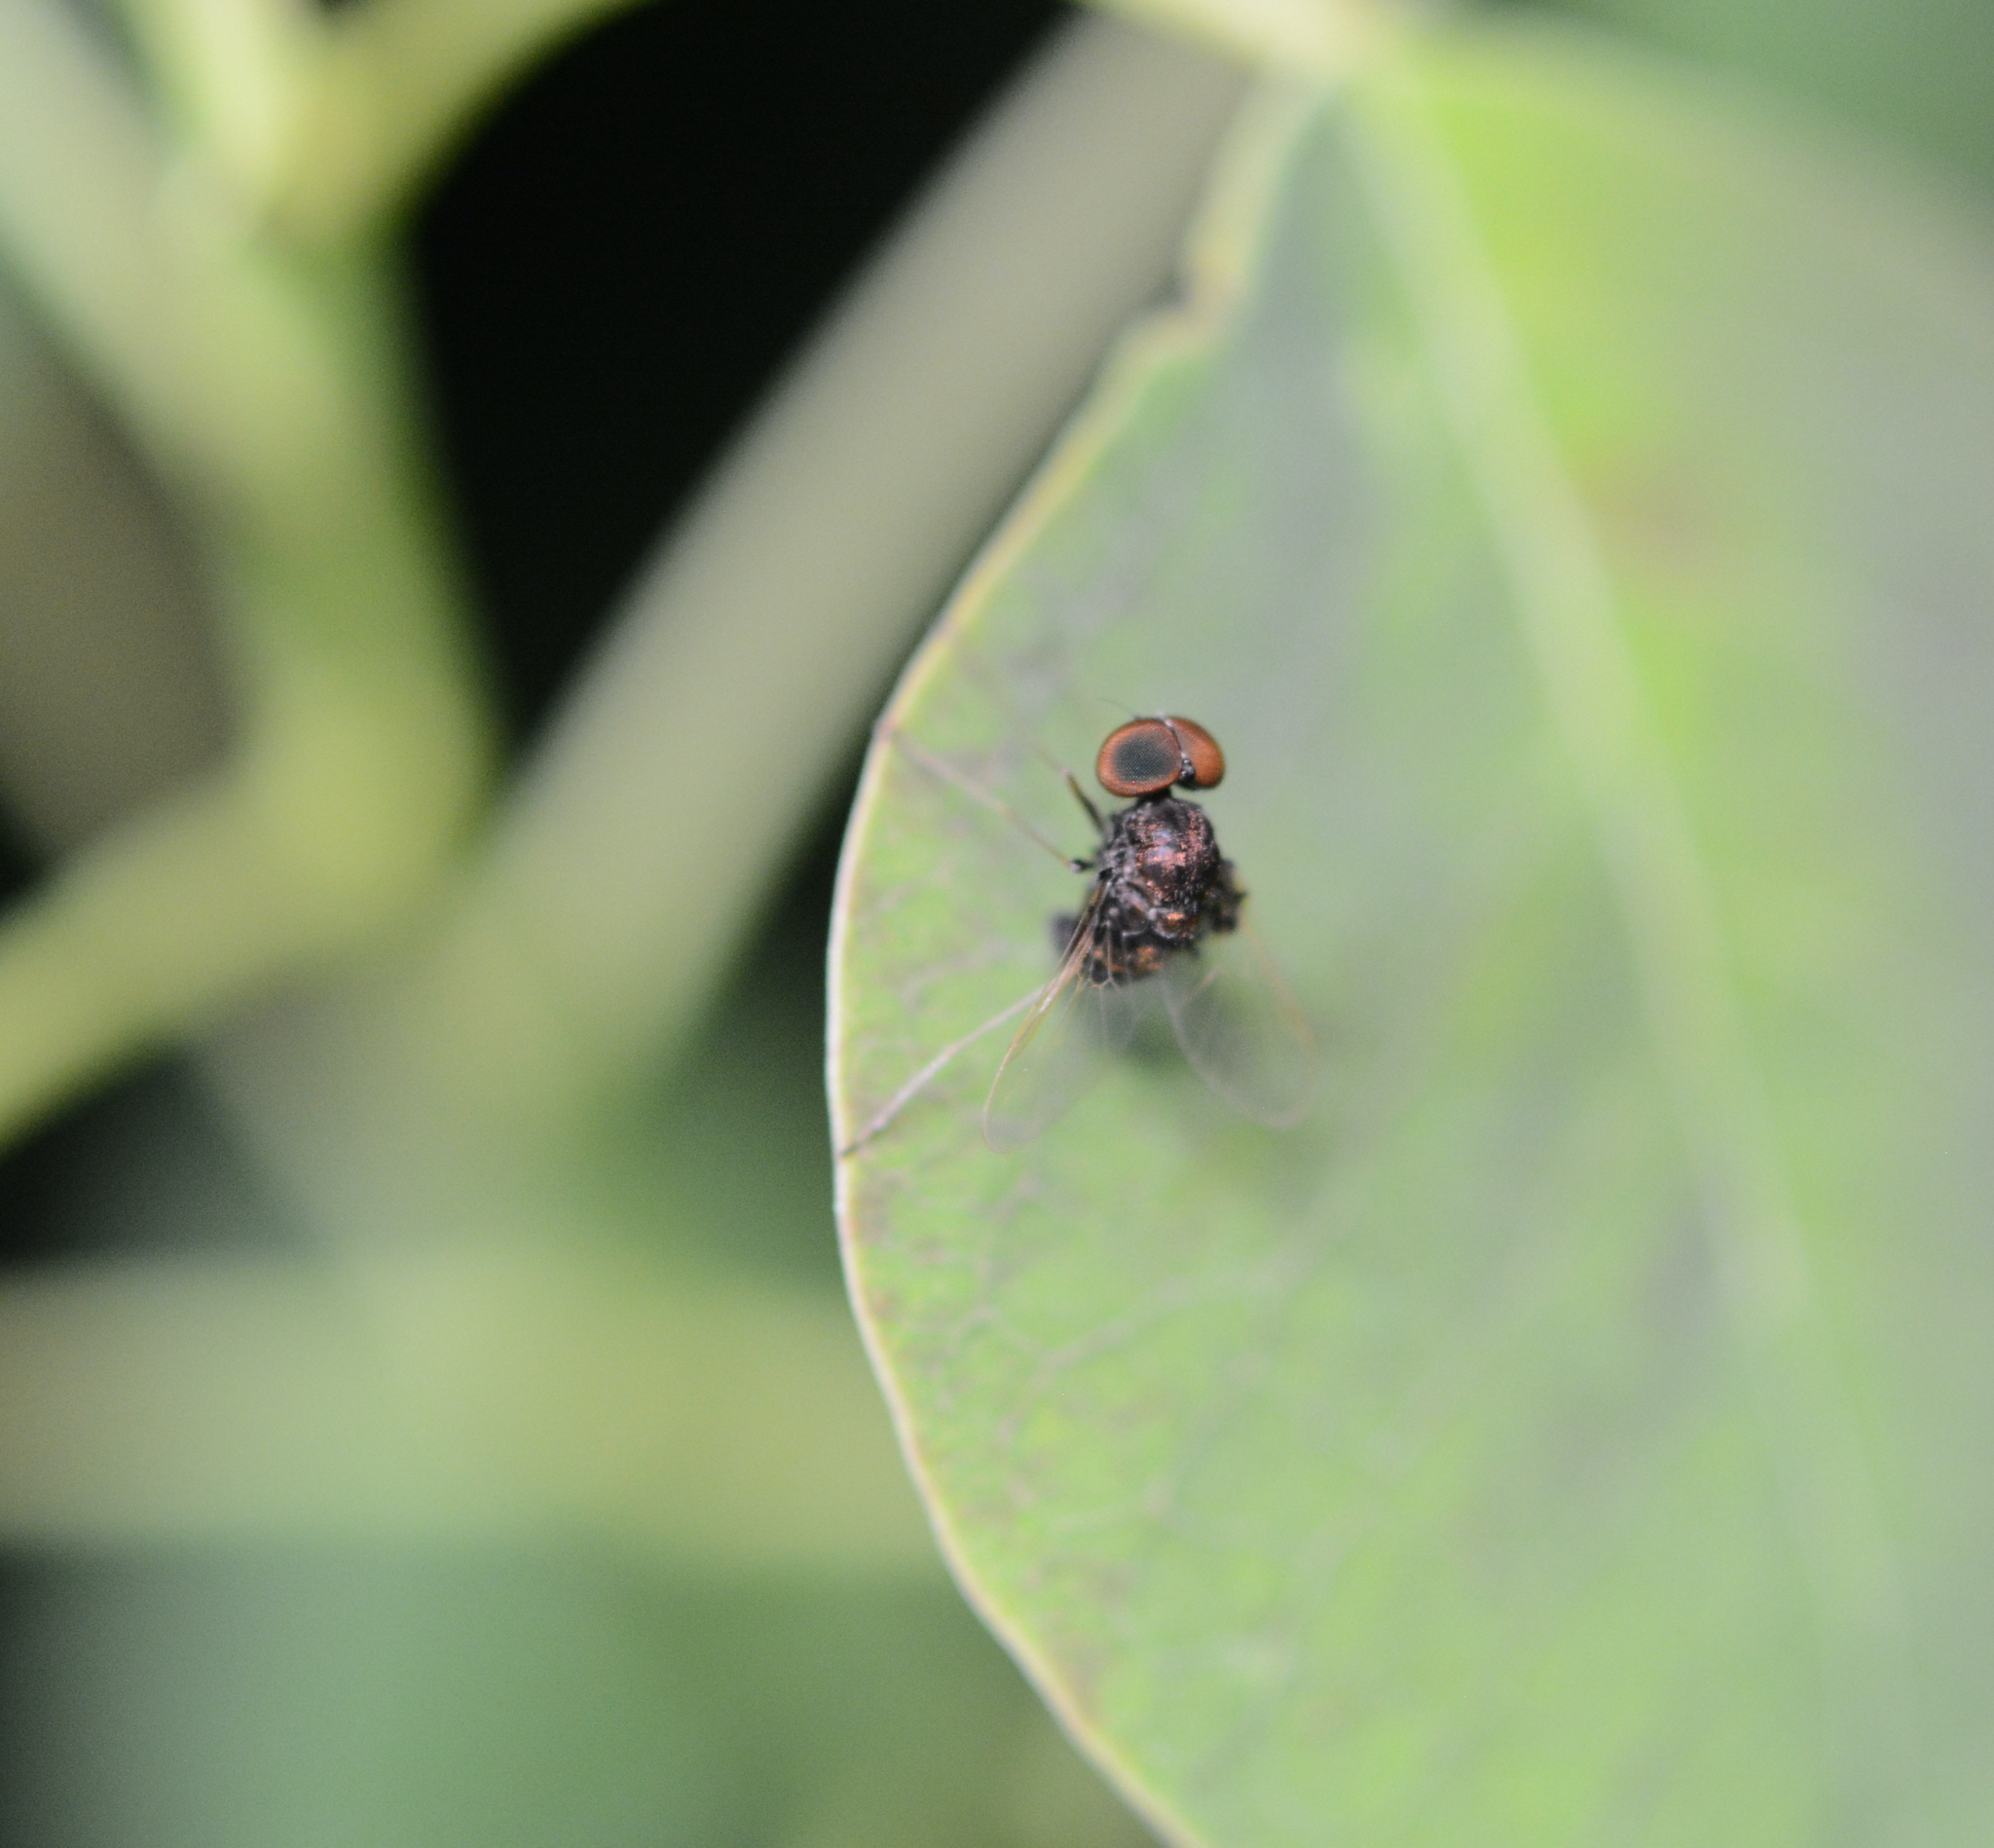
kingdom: Animalia
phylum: Arthropoda
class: Insecta
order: Diptera
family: Rhagionidae
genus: Chrysopilus
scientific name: Chrysopilus basilaris
